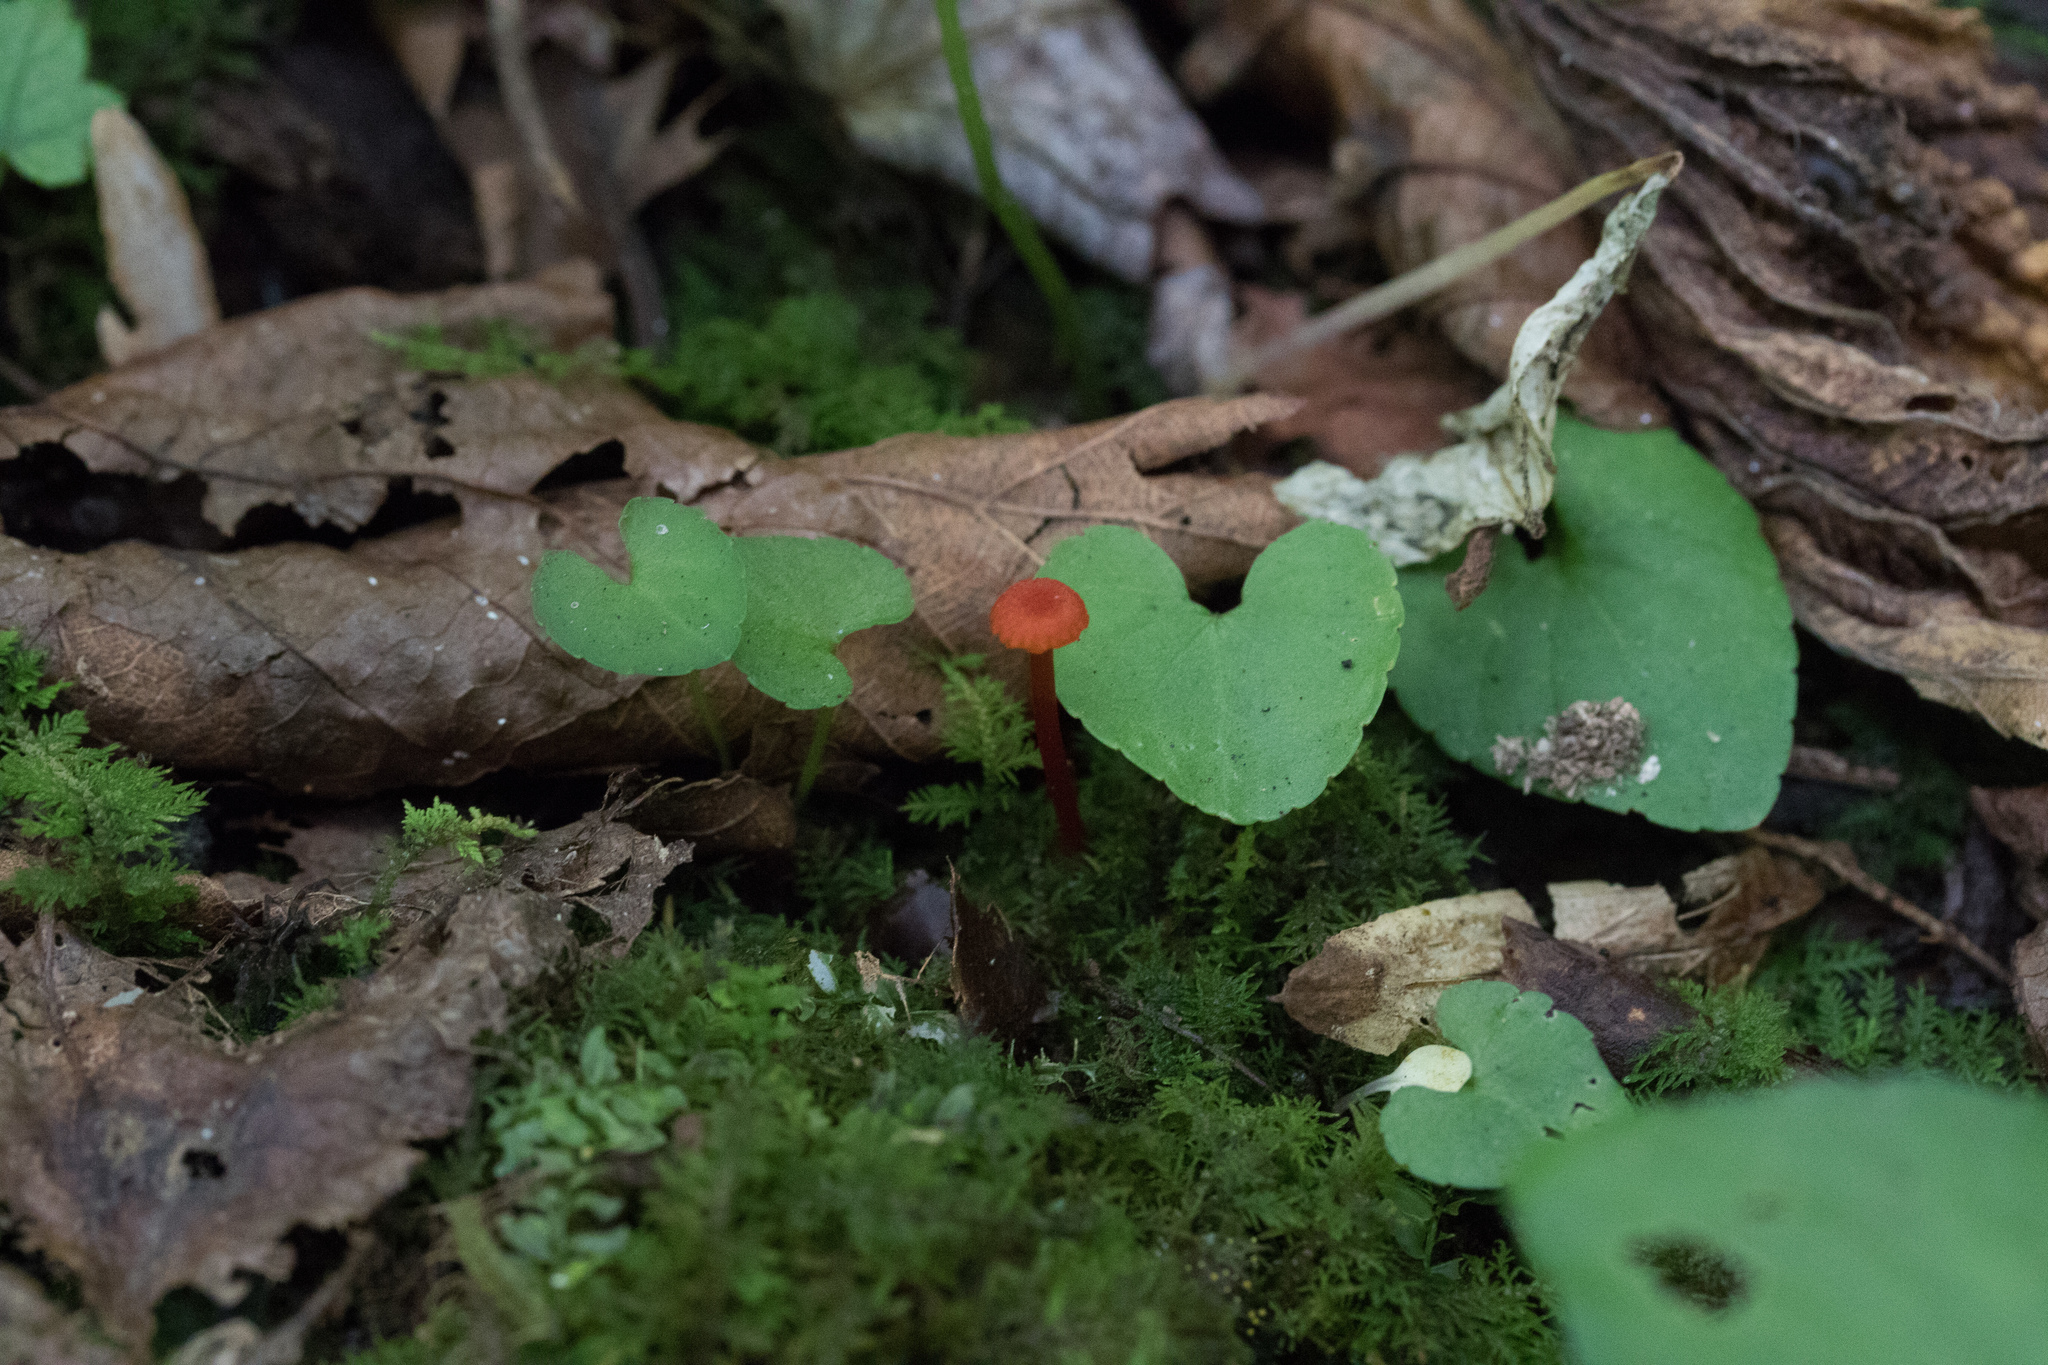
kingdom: Fungi
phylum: Basidiomycota
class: Agaricomycetes
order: Agaricales
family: Hygrophoraceae
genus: Hygrocybe
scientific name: Hygrocybe miniata
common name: Vermilion waxcap
